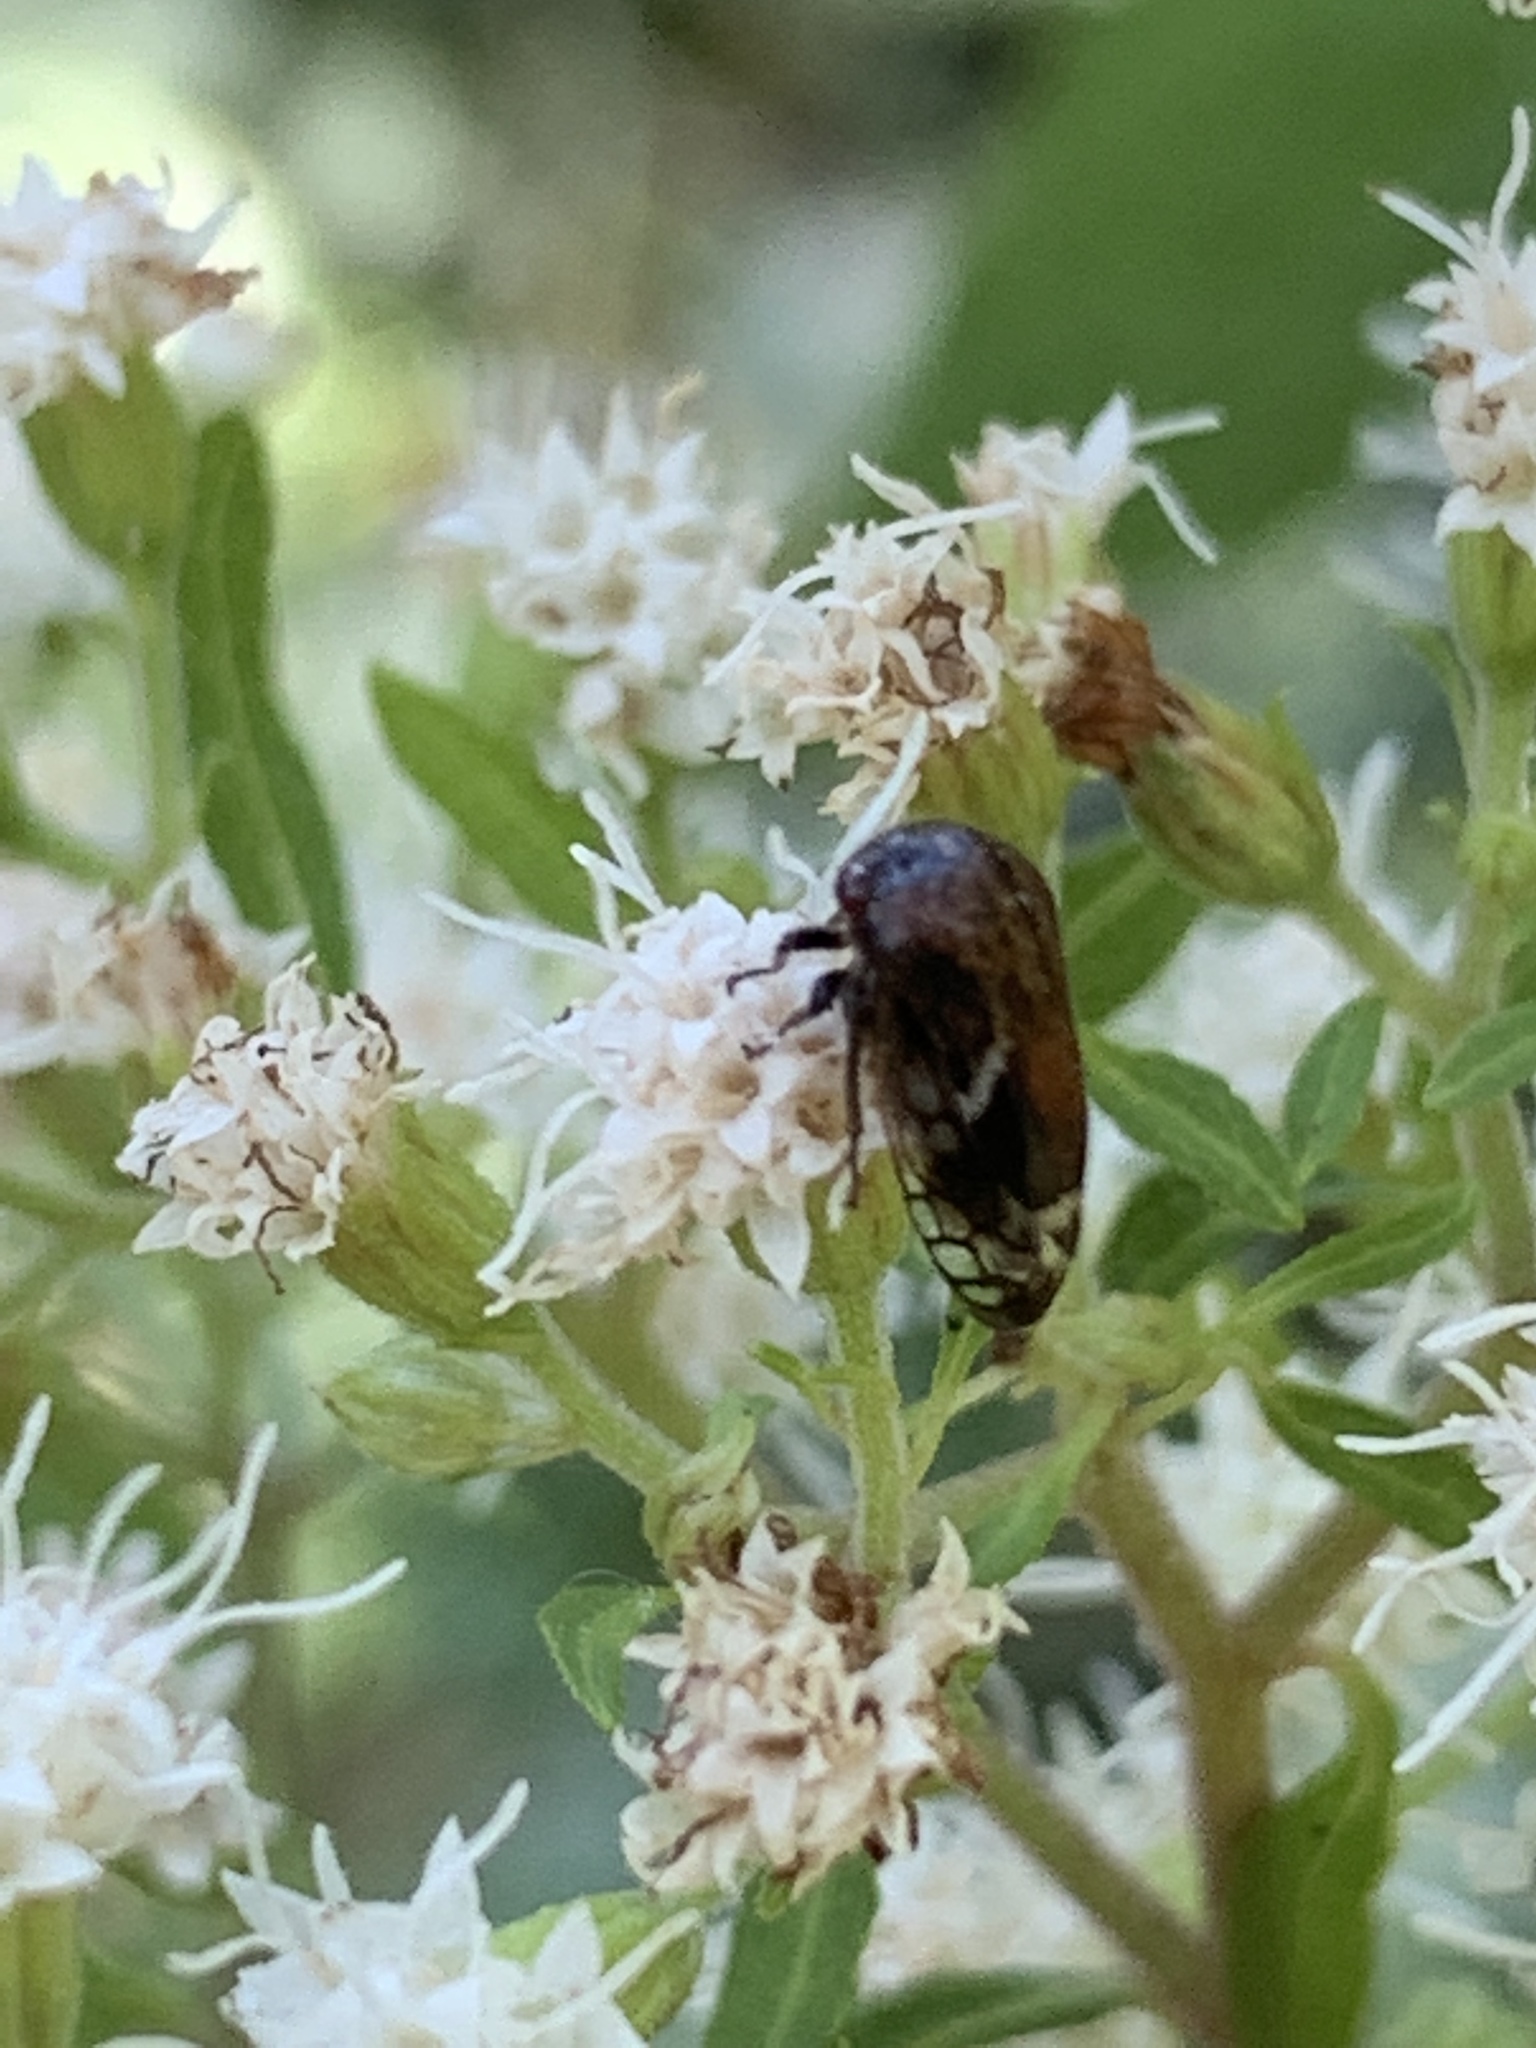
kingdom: Animalia
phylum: Arthropoda
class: Insecta
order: Hemiptera
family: Membracidae
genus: Vanduzea
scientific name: Vanduzea arquata
